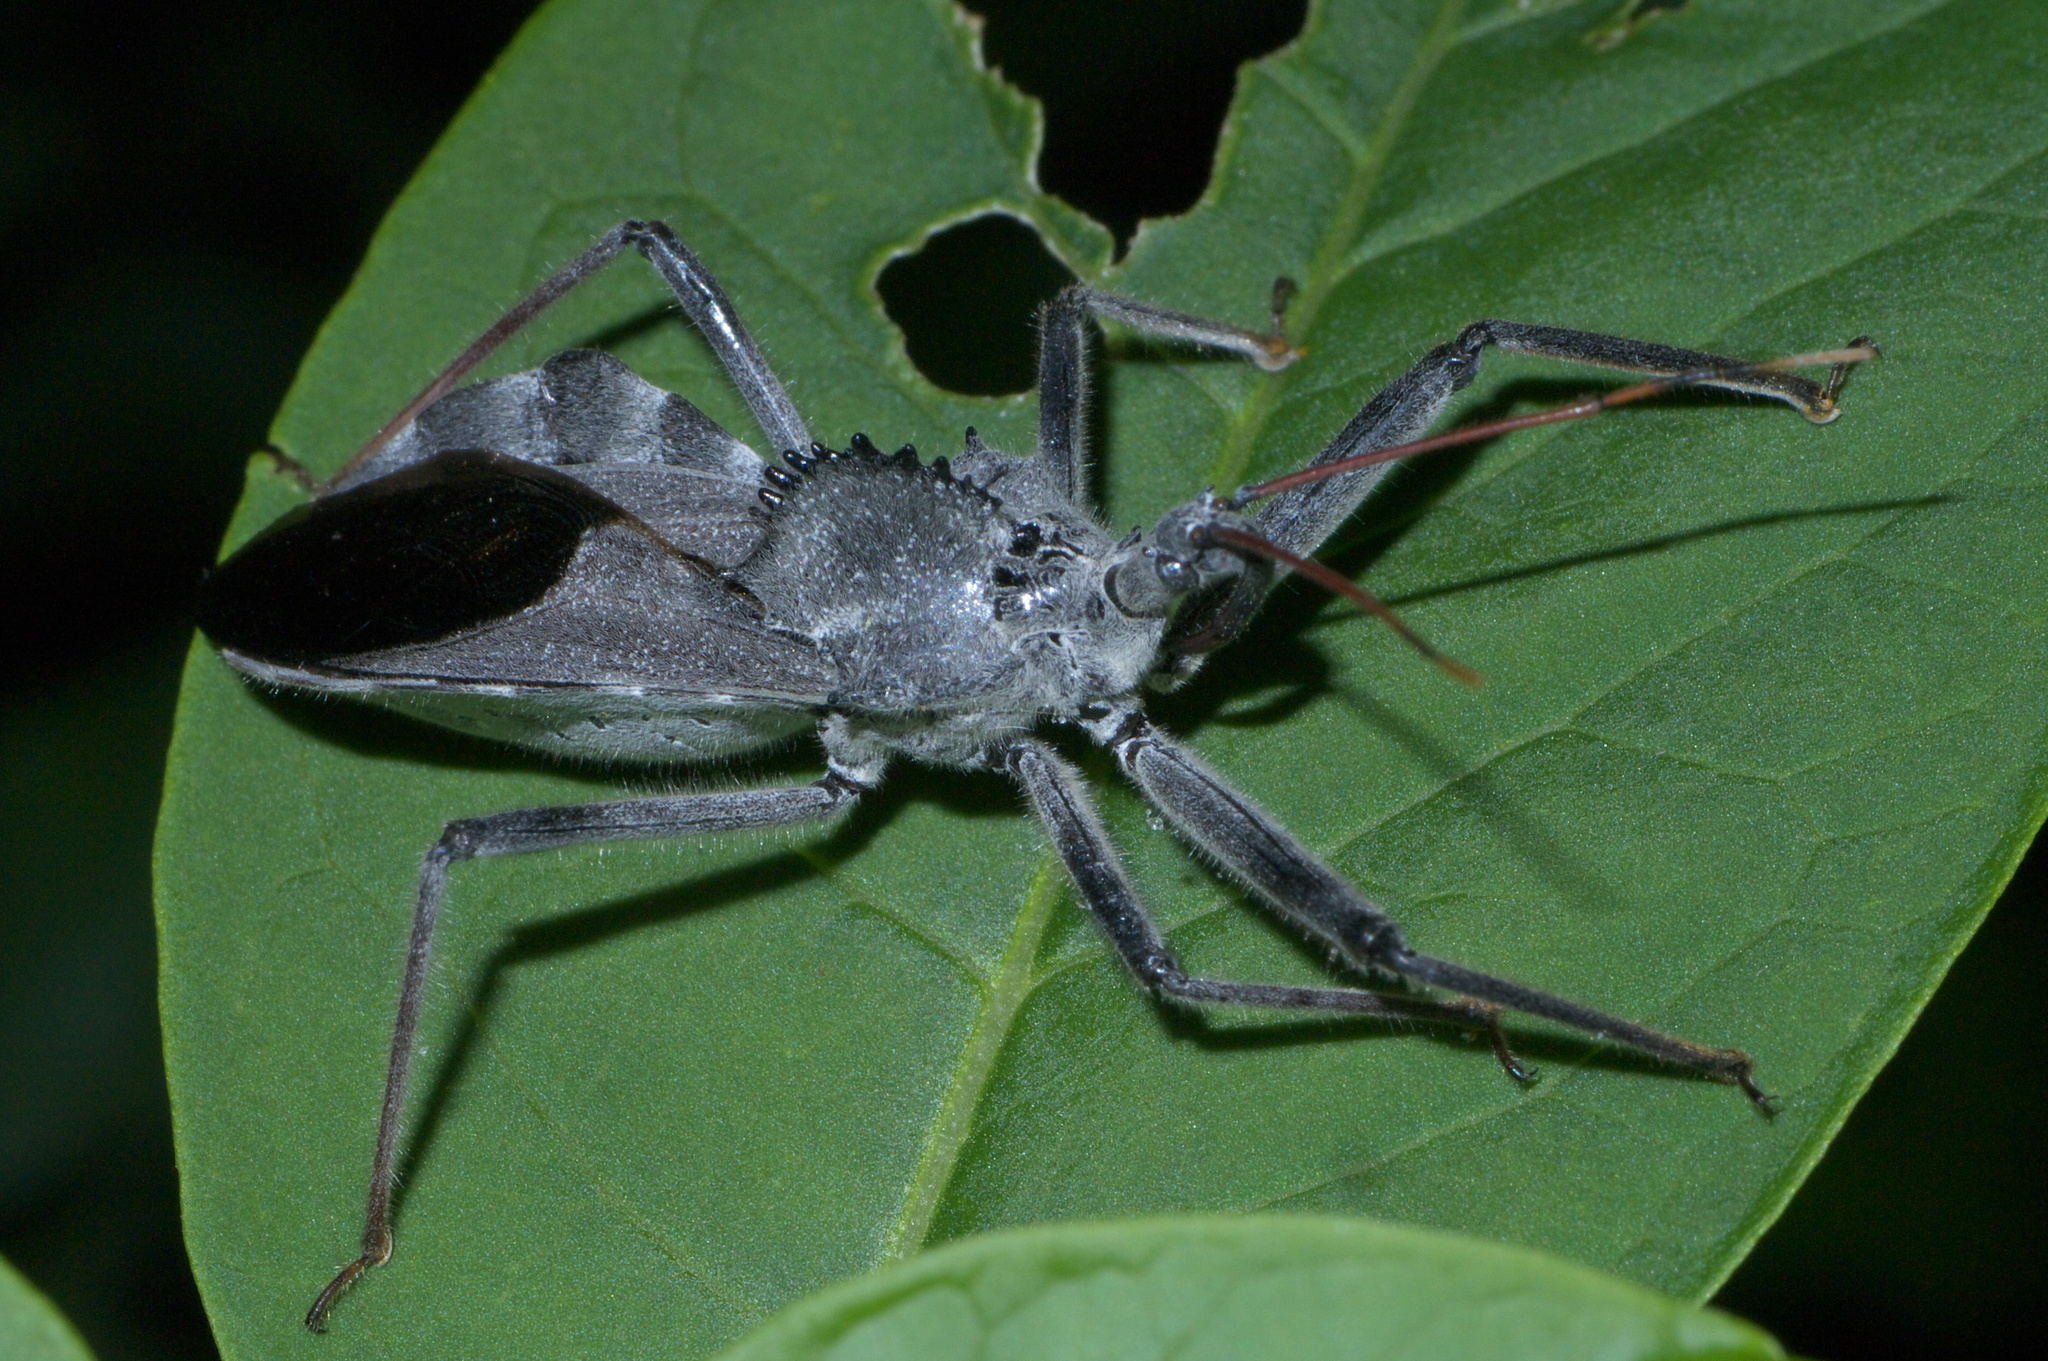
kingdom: Animalia
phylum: Arthropoda
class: Insecta
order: Hemiptera
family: Reduviidae
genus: Arilus
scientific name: Arilus cristatus
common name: North american wheel bug
